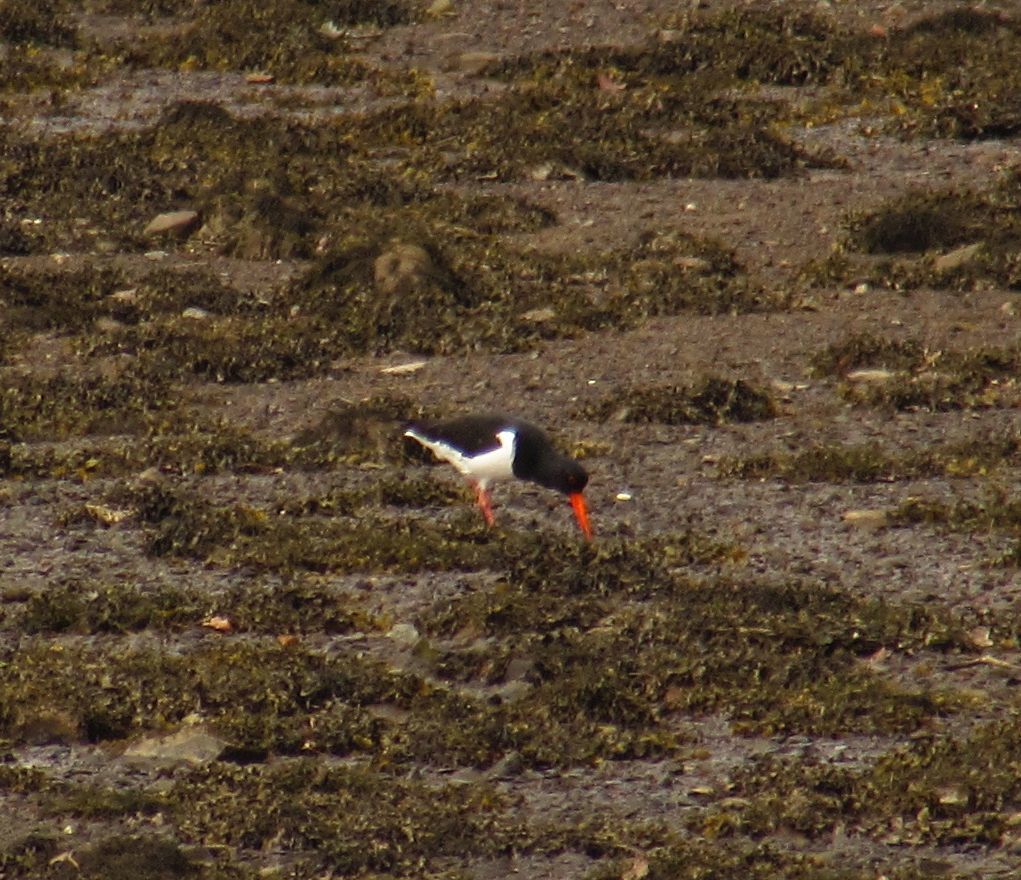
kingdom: Animalia
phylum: Chordata
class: Aves
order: Charadriiformes
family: Haematopodidae
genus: Haematopus
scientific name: Haematopus ostralegus
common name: Eurasian oystercatcher
